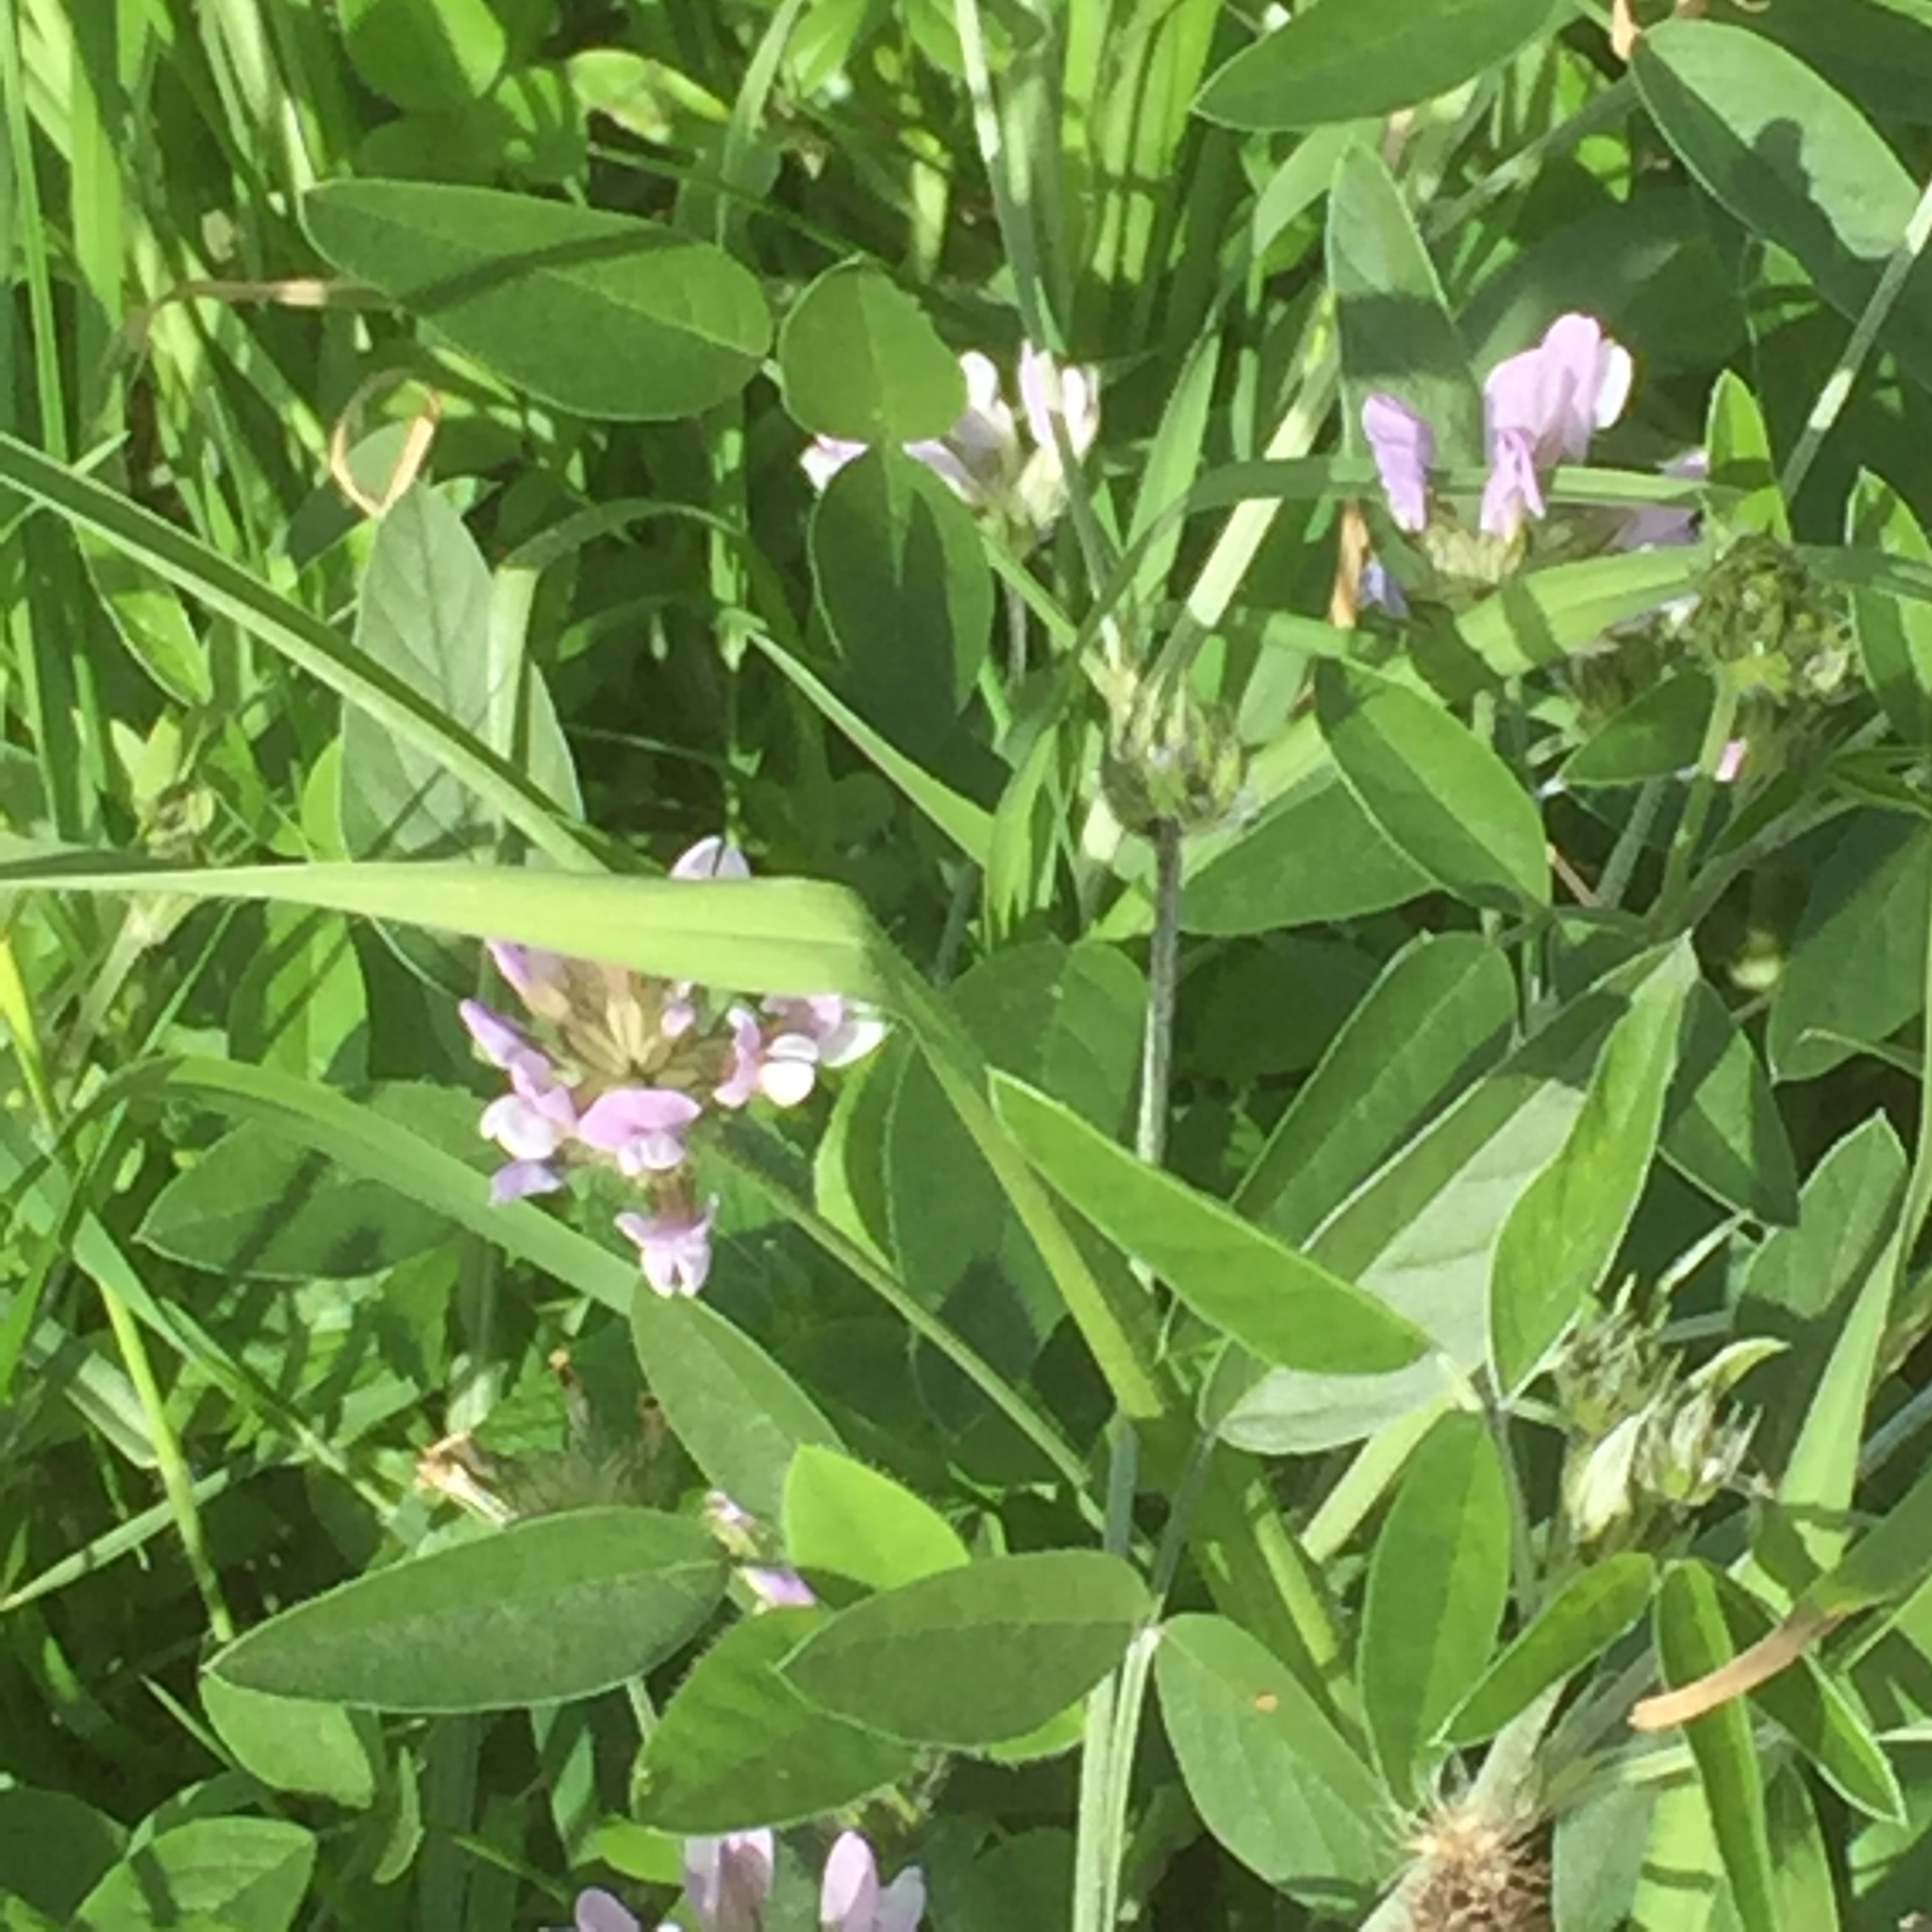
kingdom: Plantae
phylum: Tracheophyta
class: Magnoliopsida
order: Fabales
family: Fabaceae
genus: Bituminaria
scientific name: Bituminaria bituminosa
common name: Arabian pea
